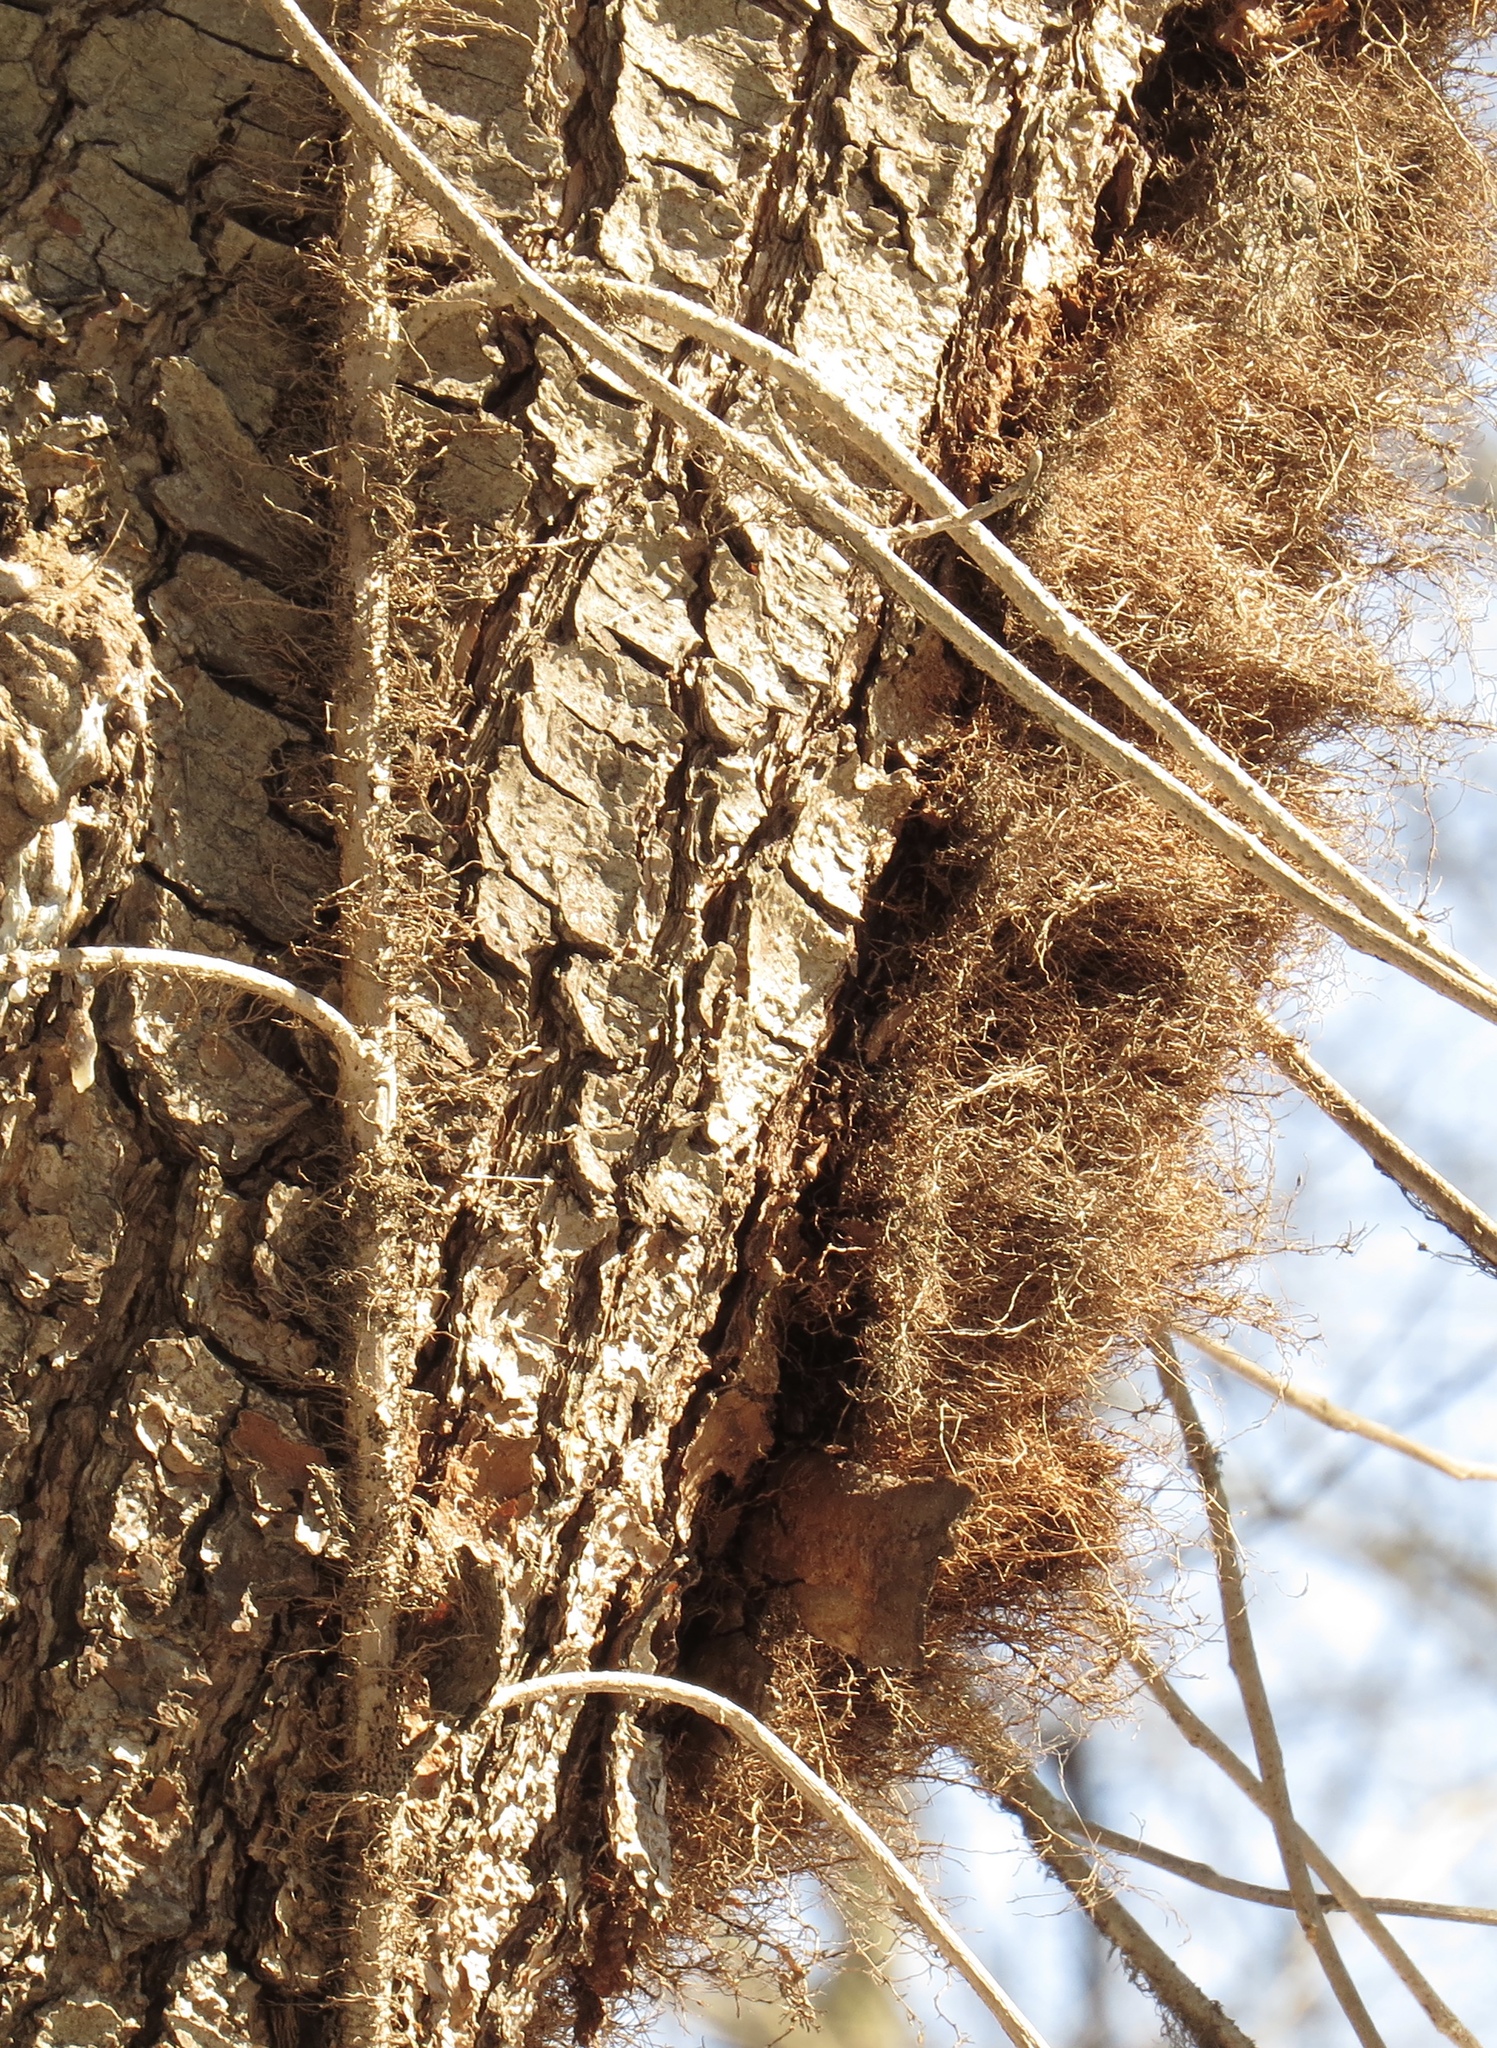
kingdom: Plantae
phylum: Tracheophyta
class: Magnoliopsida
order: Sapindales
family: Anacardiaceae
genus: Toxicodendron
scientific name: Toxicodendron radicans
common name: Poison ivy
